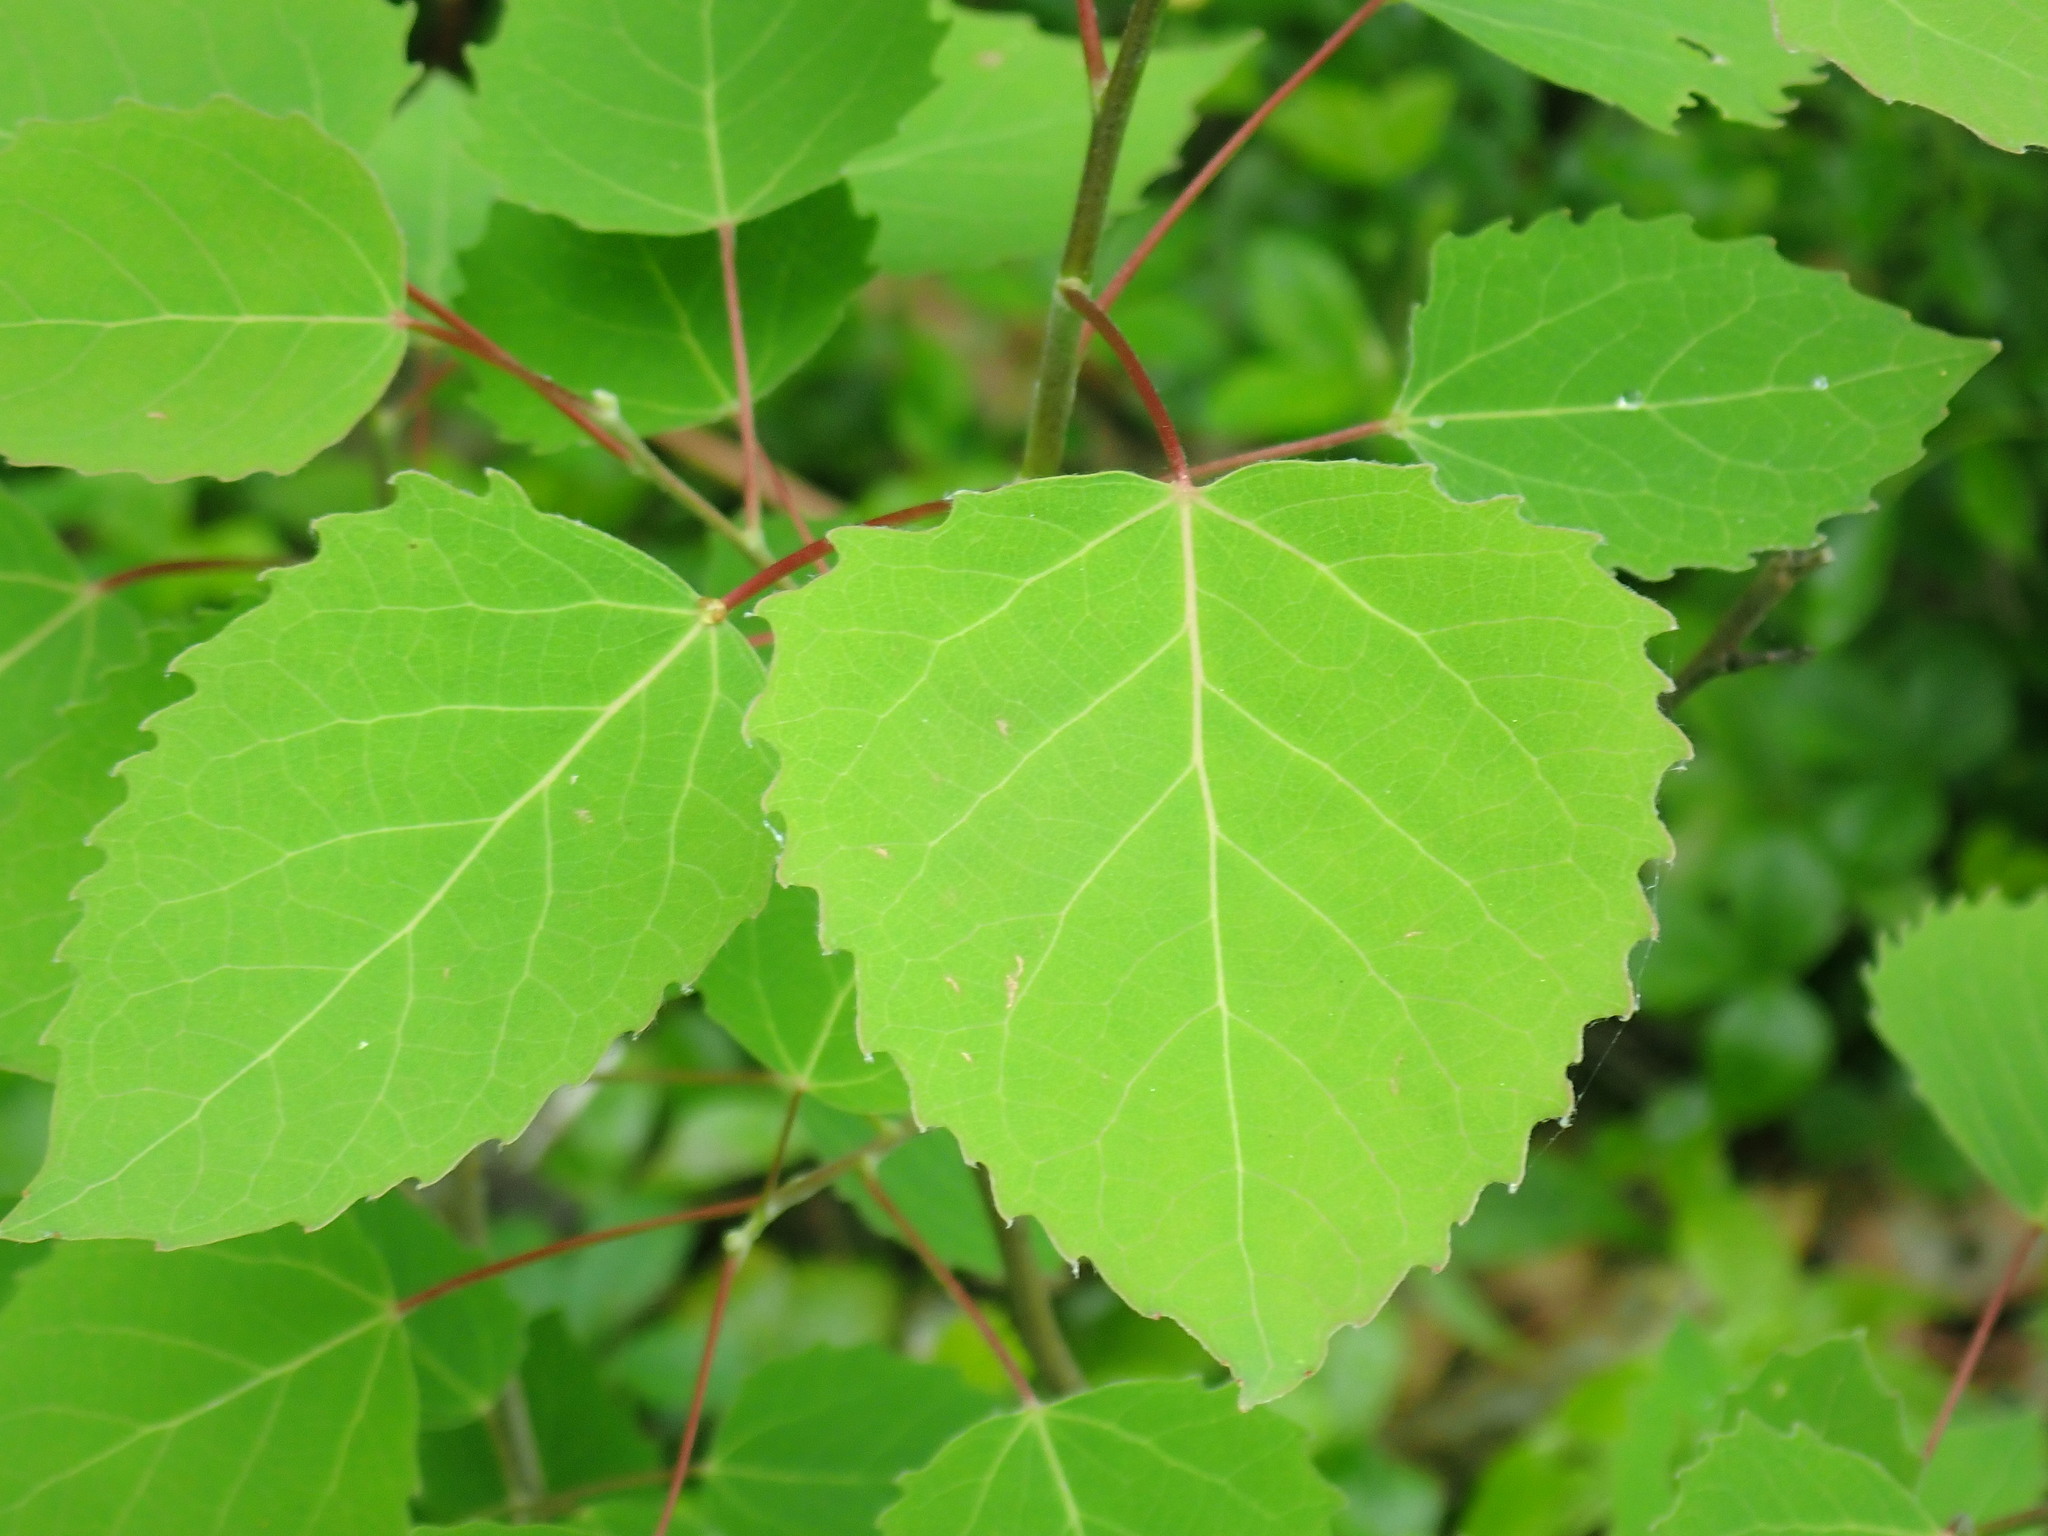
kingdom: Plantae
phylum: Tracheophyta
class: Magnoliopsida
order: Malpighiales
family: Salicaceae
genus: Populus
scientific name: Populus grandidentata
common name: Bigtooth aspen
